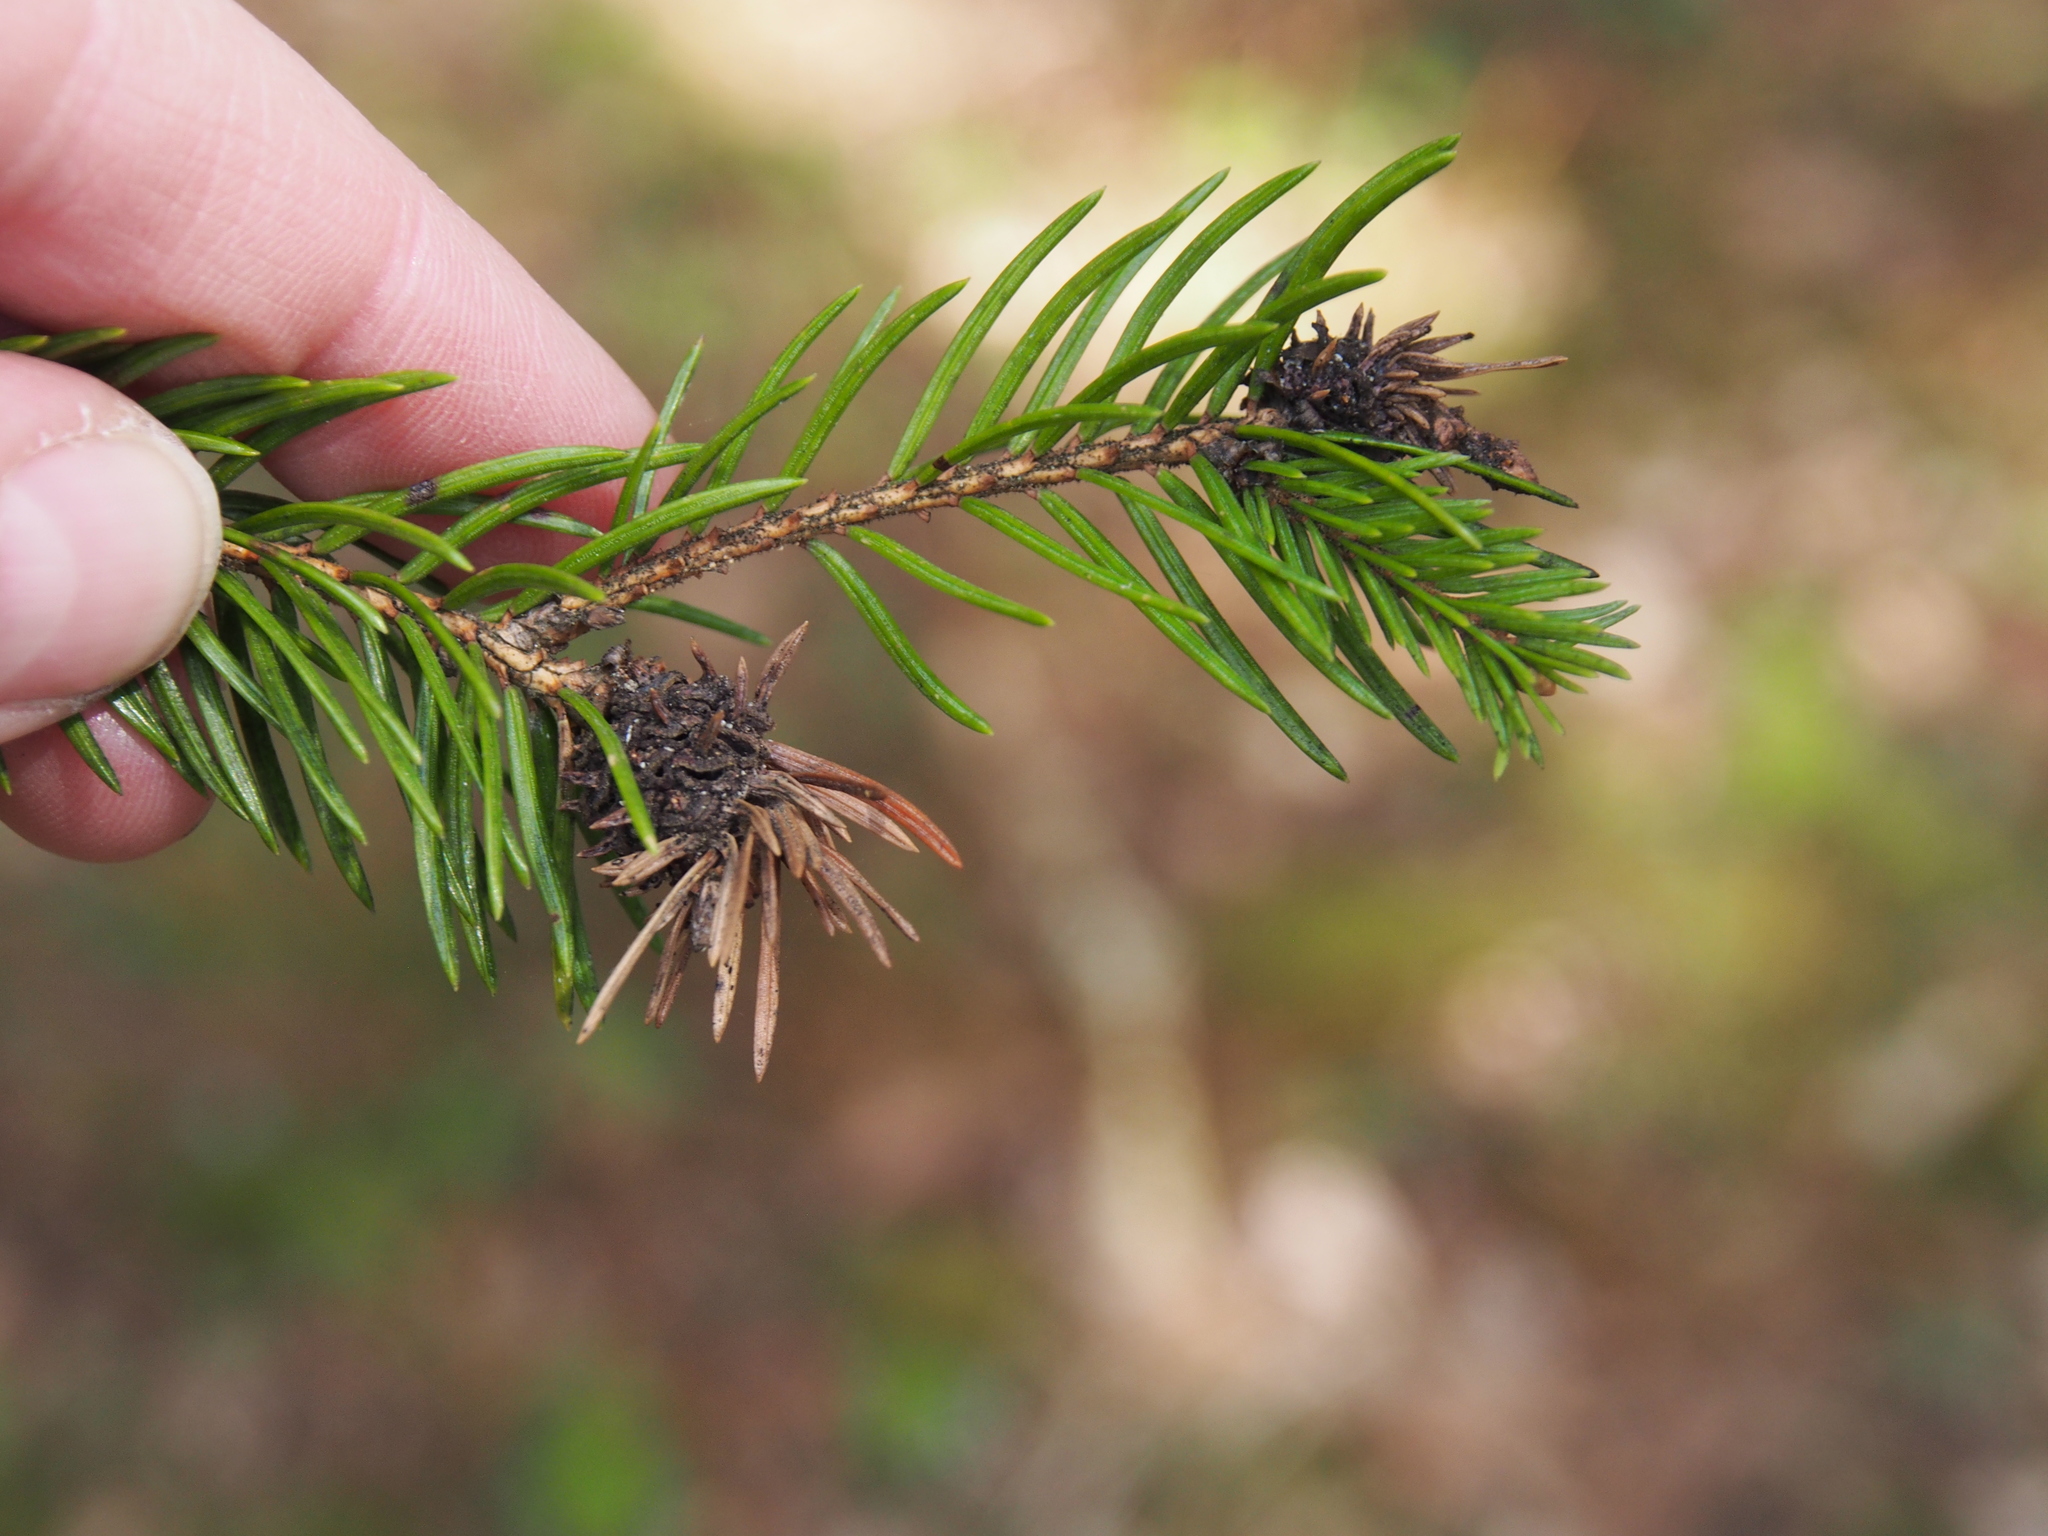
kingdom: Animalia
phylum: Arthropoda
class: Insecta
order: Hemiptera
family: Adelgidae
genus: Adelges
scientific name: Adelges laricis
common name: Pale spruce gall adelgid
